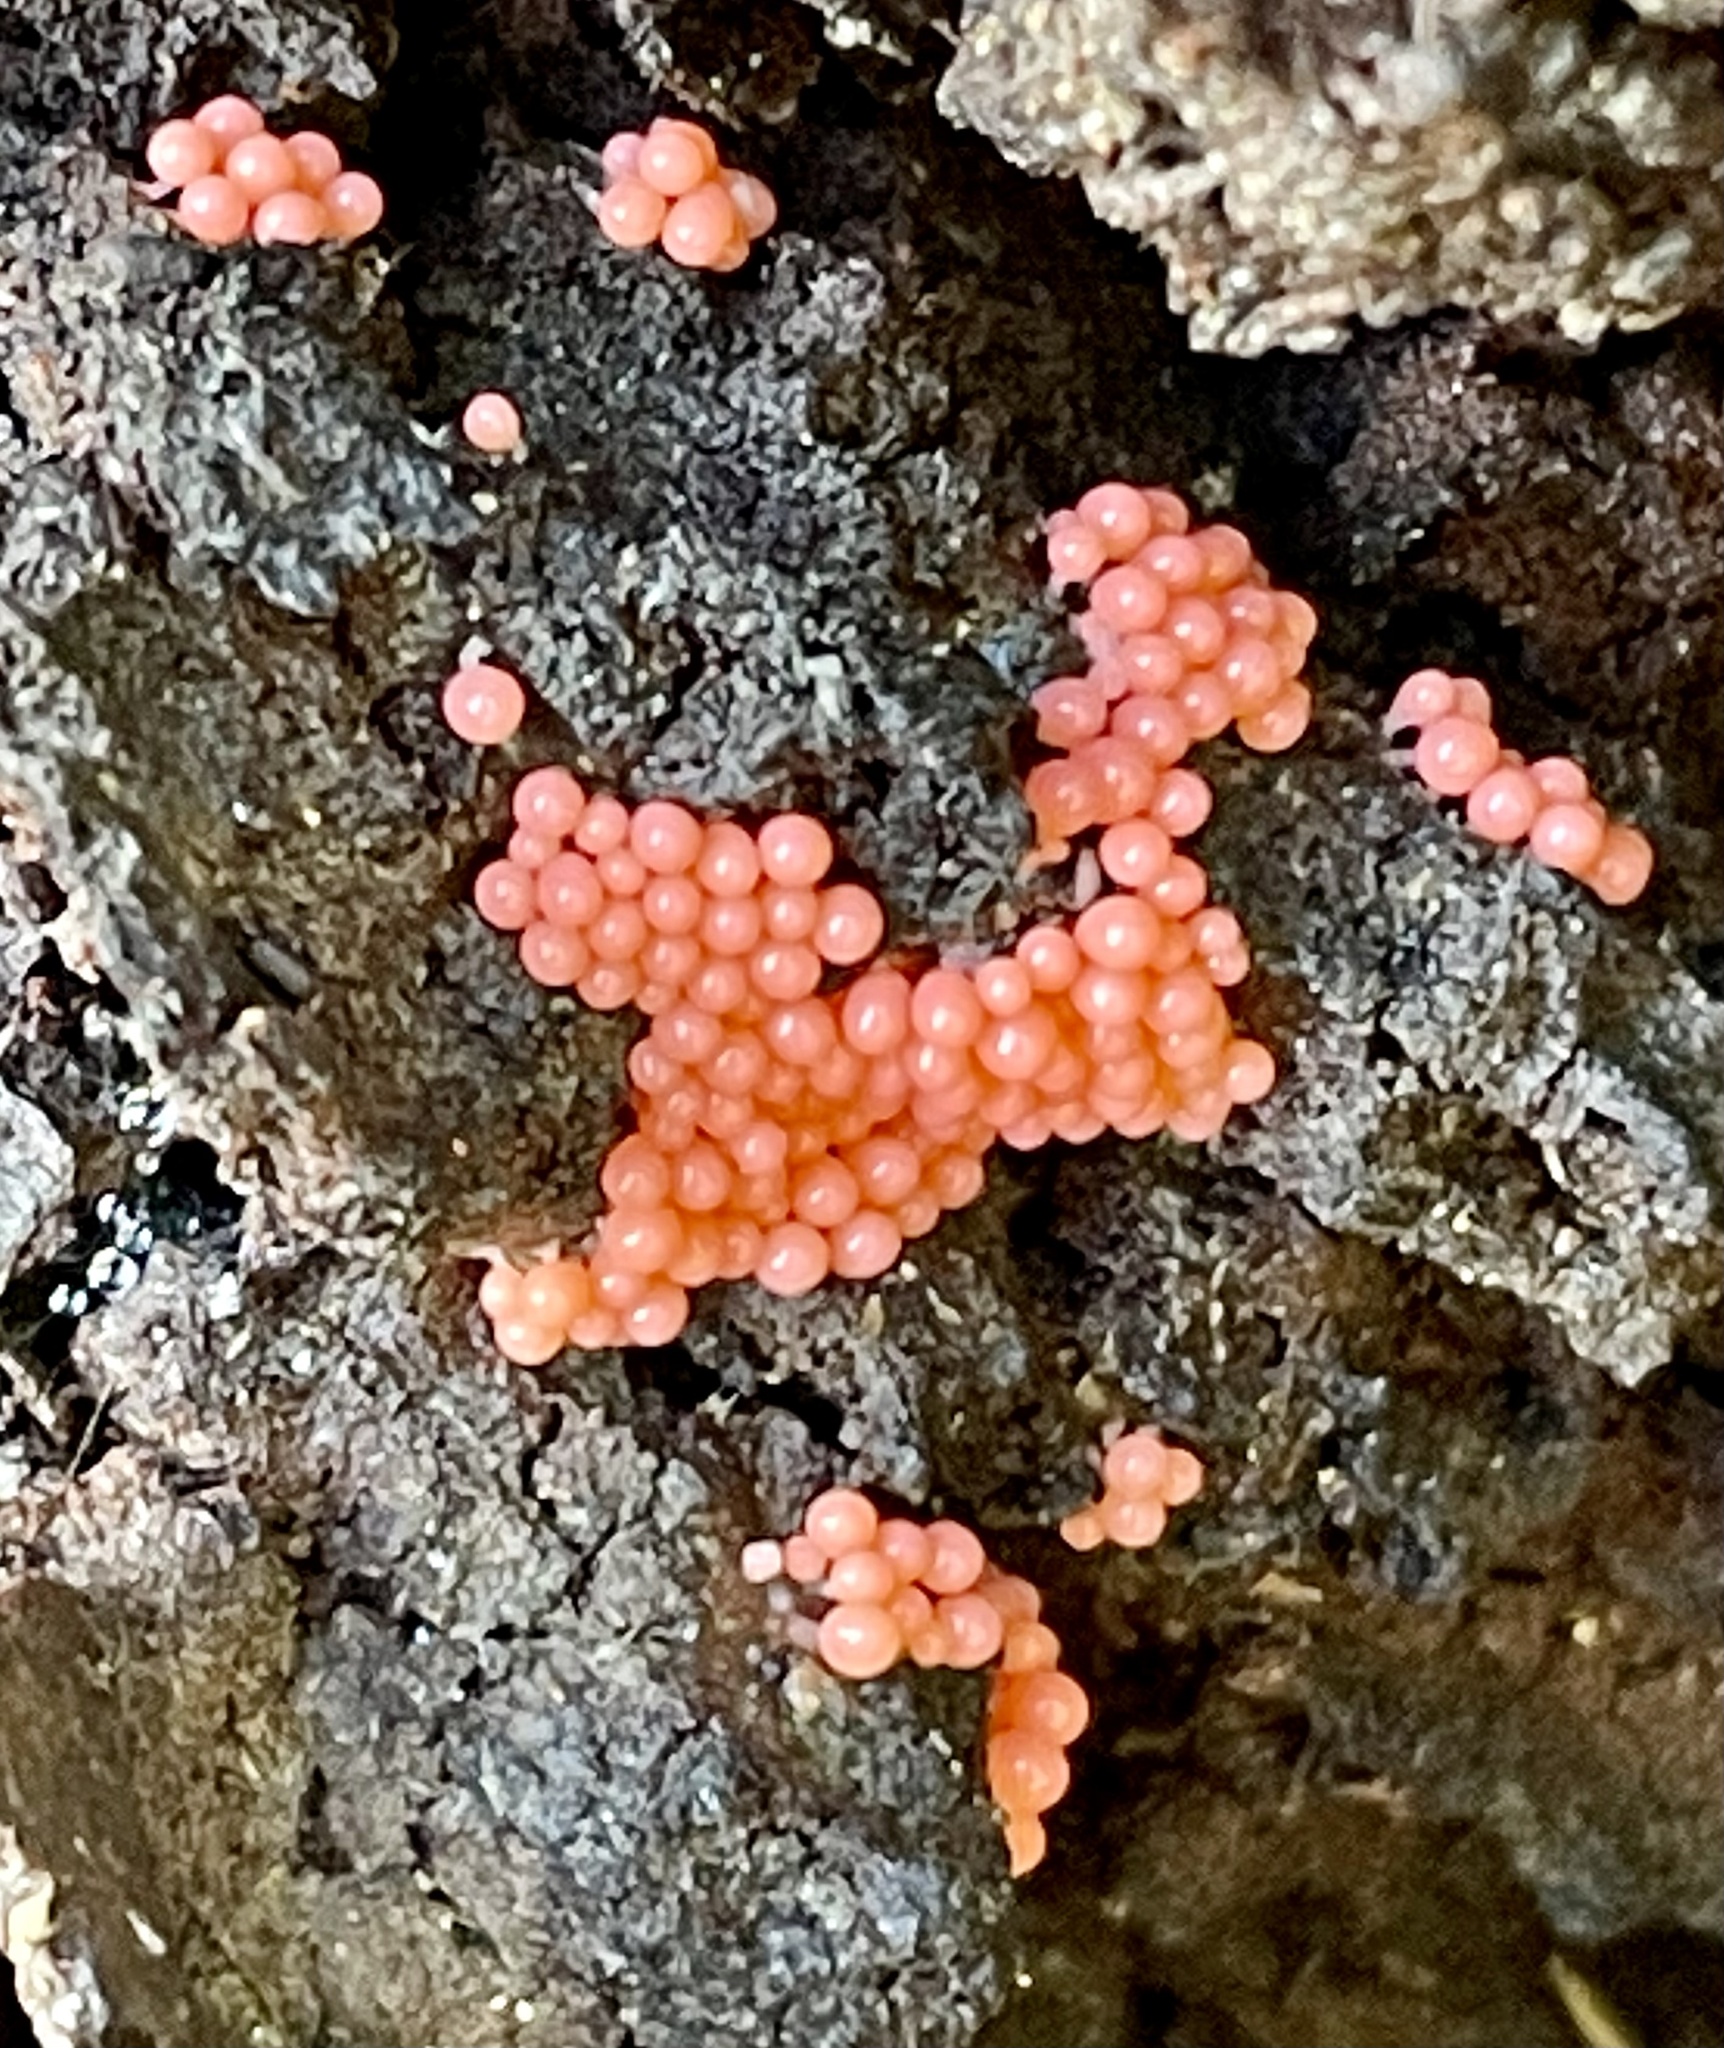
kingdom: Protozoa
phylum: Mycetozoa
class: Myxomycetes
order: Trichiales
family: Arcyriaceae
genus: Hemitrichia
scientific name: Hemitrichia decipiens
